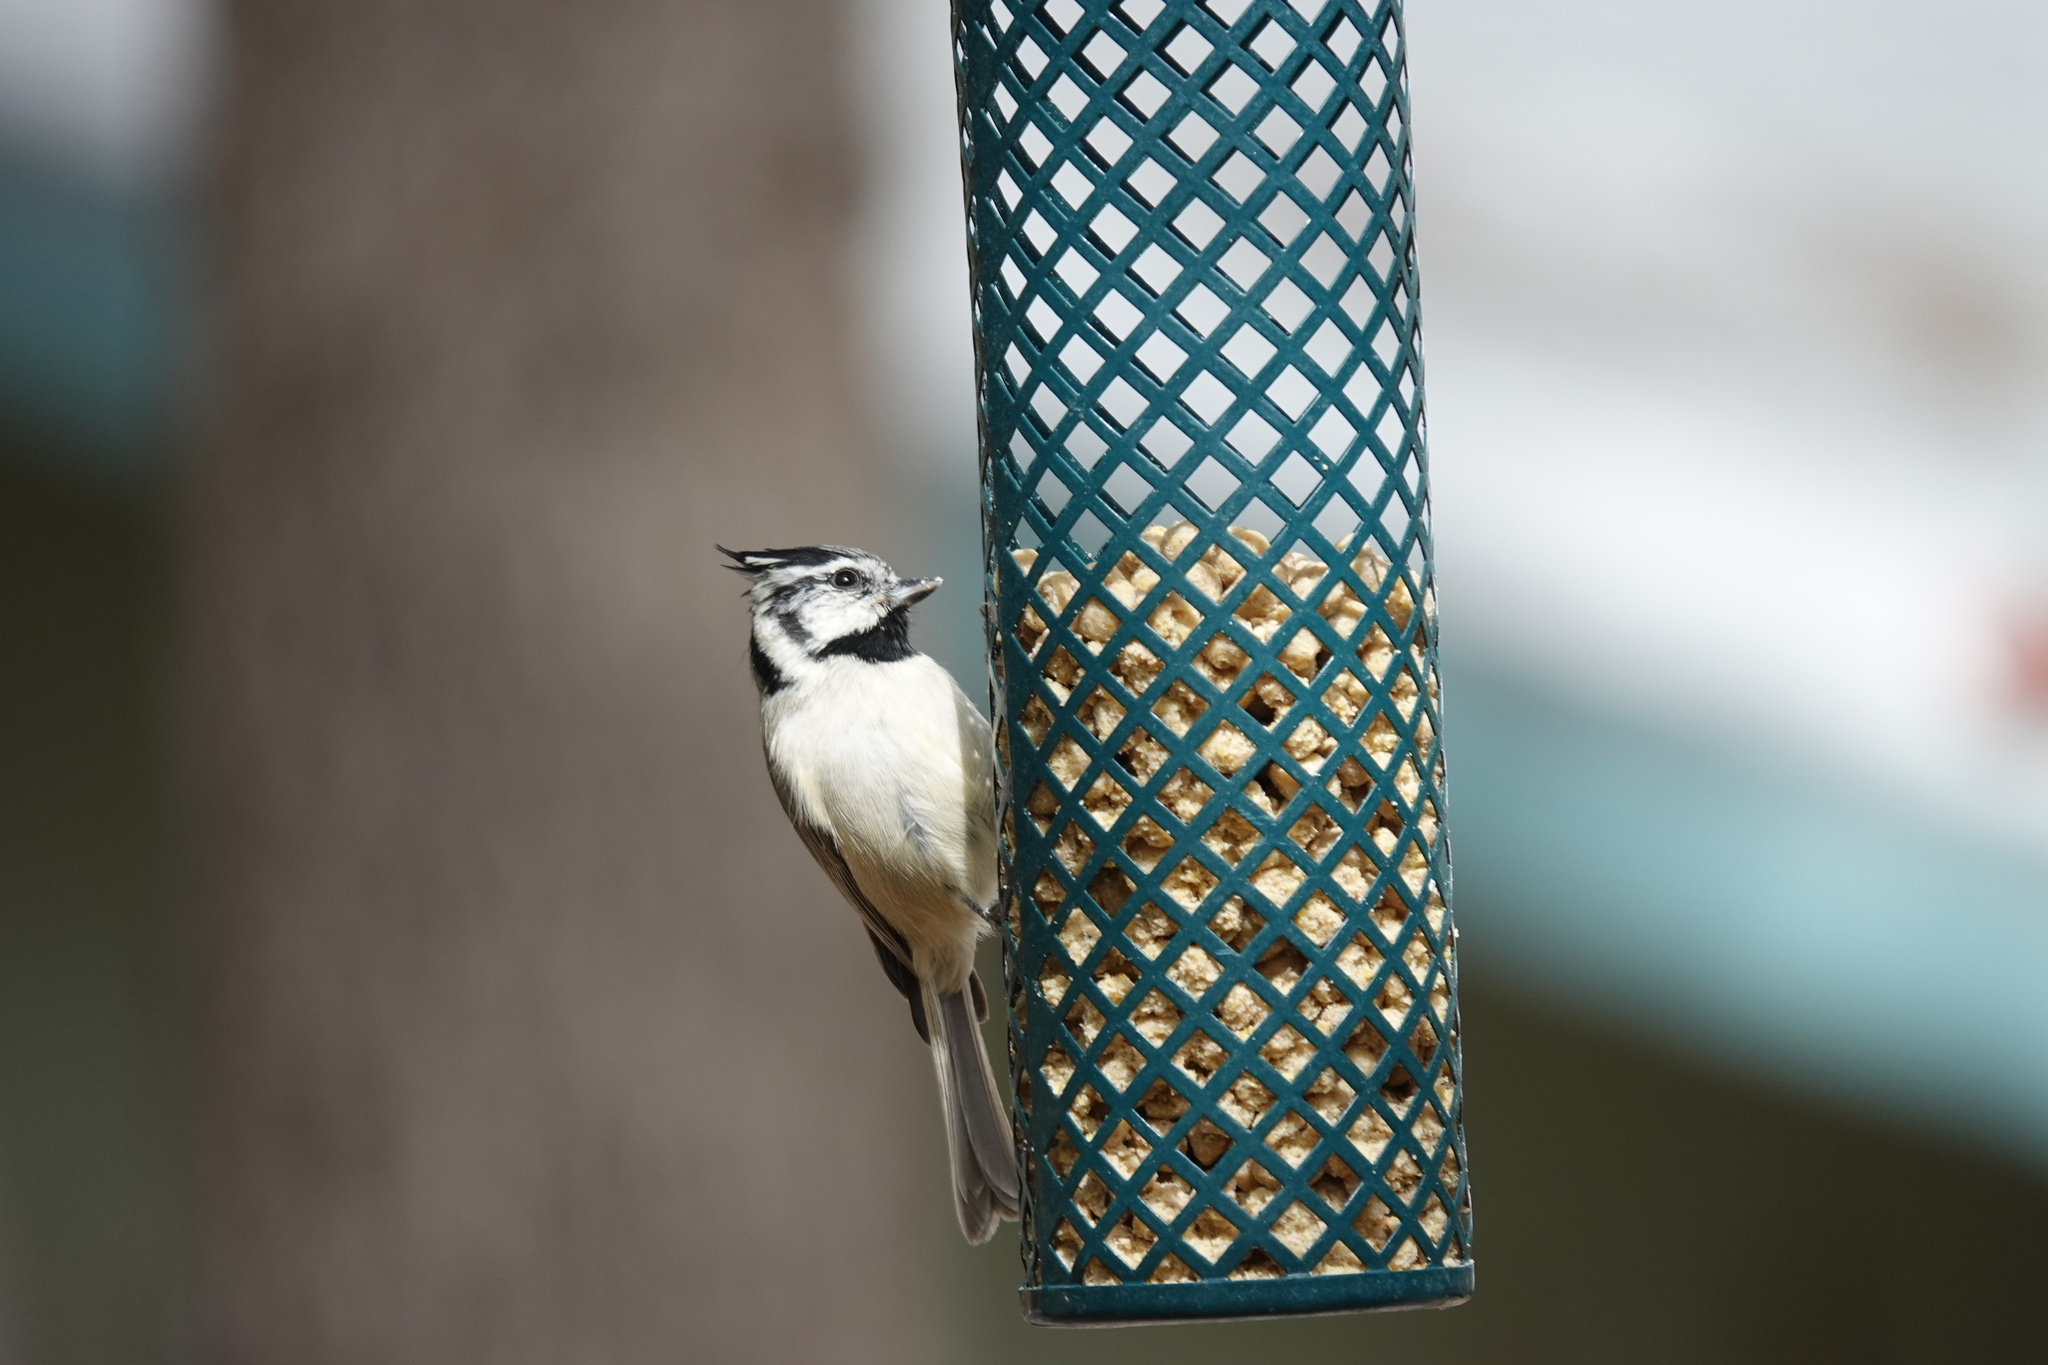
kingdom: Animalia
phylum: Chordata
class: Aves
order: Passeriformes
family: Paridae
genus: Baeolophus
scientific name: Baeolophus wollweberi
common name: Bridled titmouse
